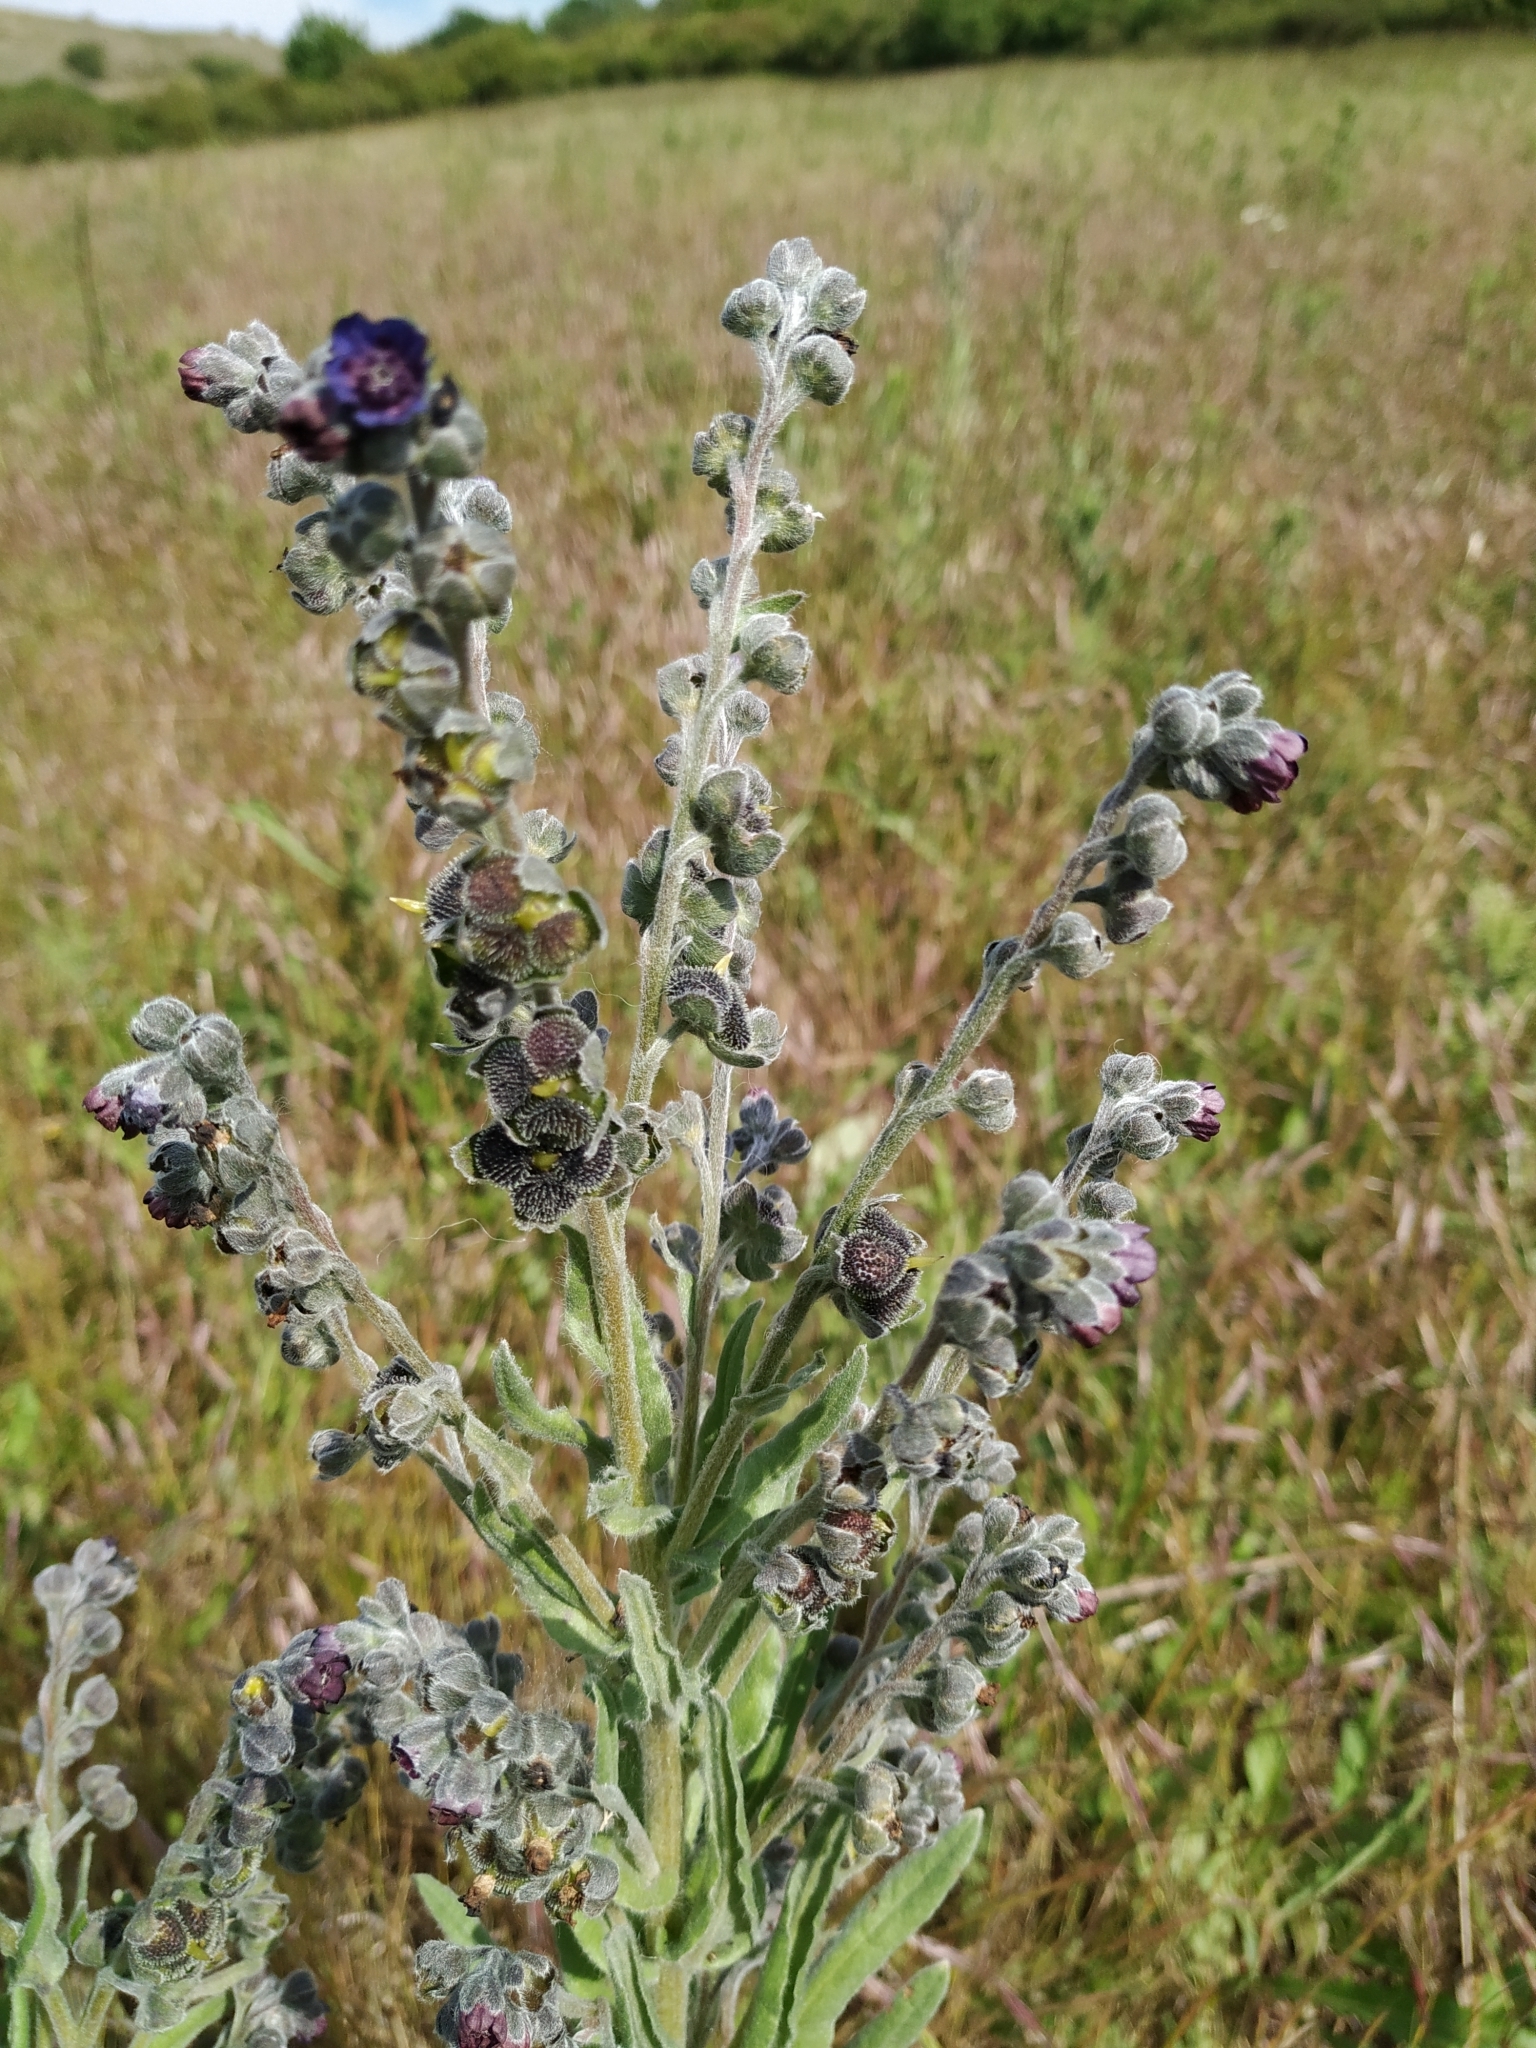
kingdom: Plantae
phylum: Tracheophyta
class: Magnoliopsida
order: Boraginales
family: Boraginaceae
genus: Cynoglossum
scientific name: Cynoglossum officinale
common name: Hound's-tongue
